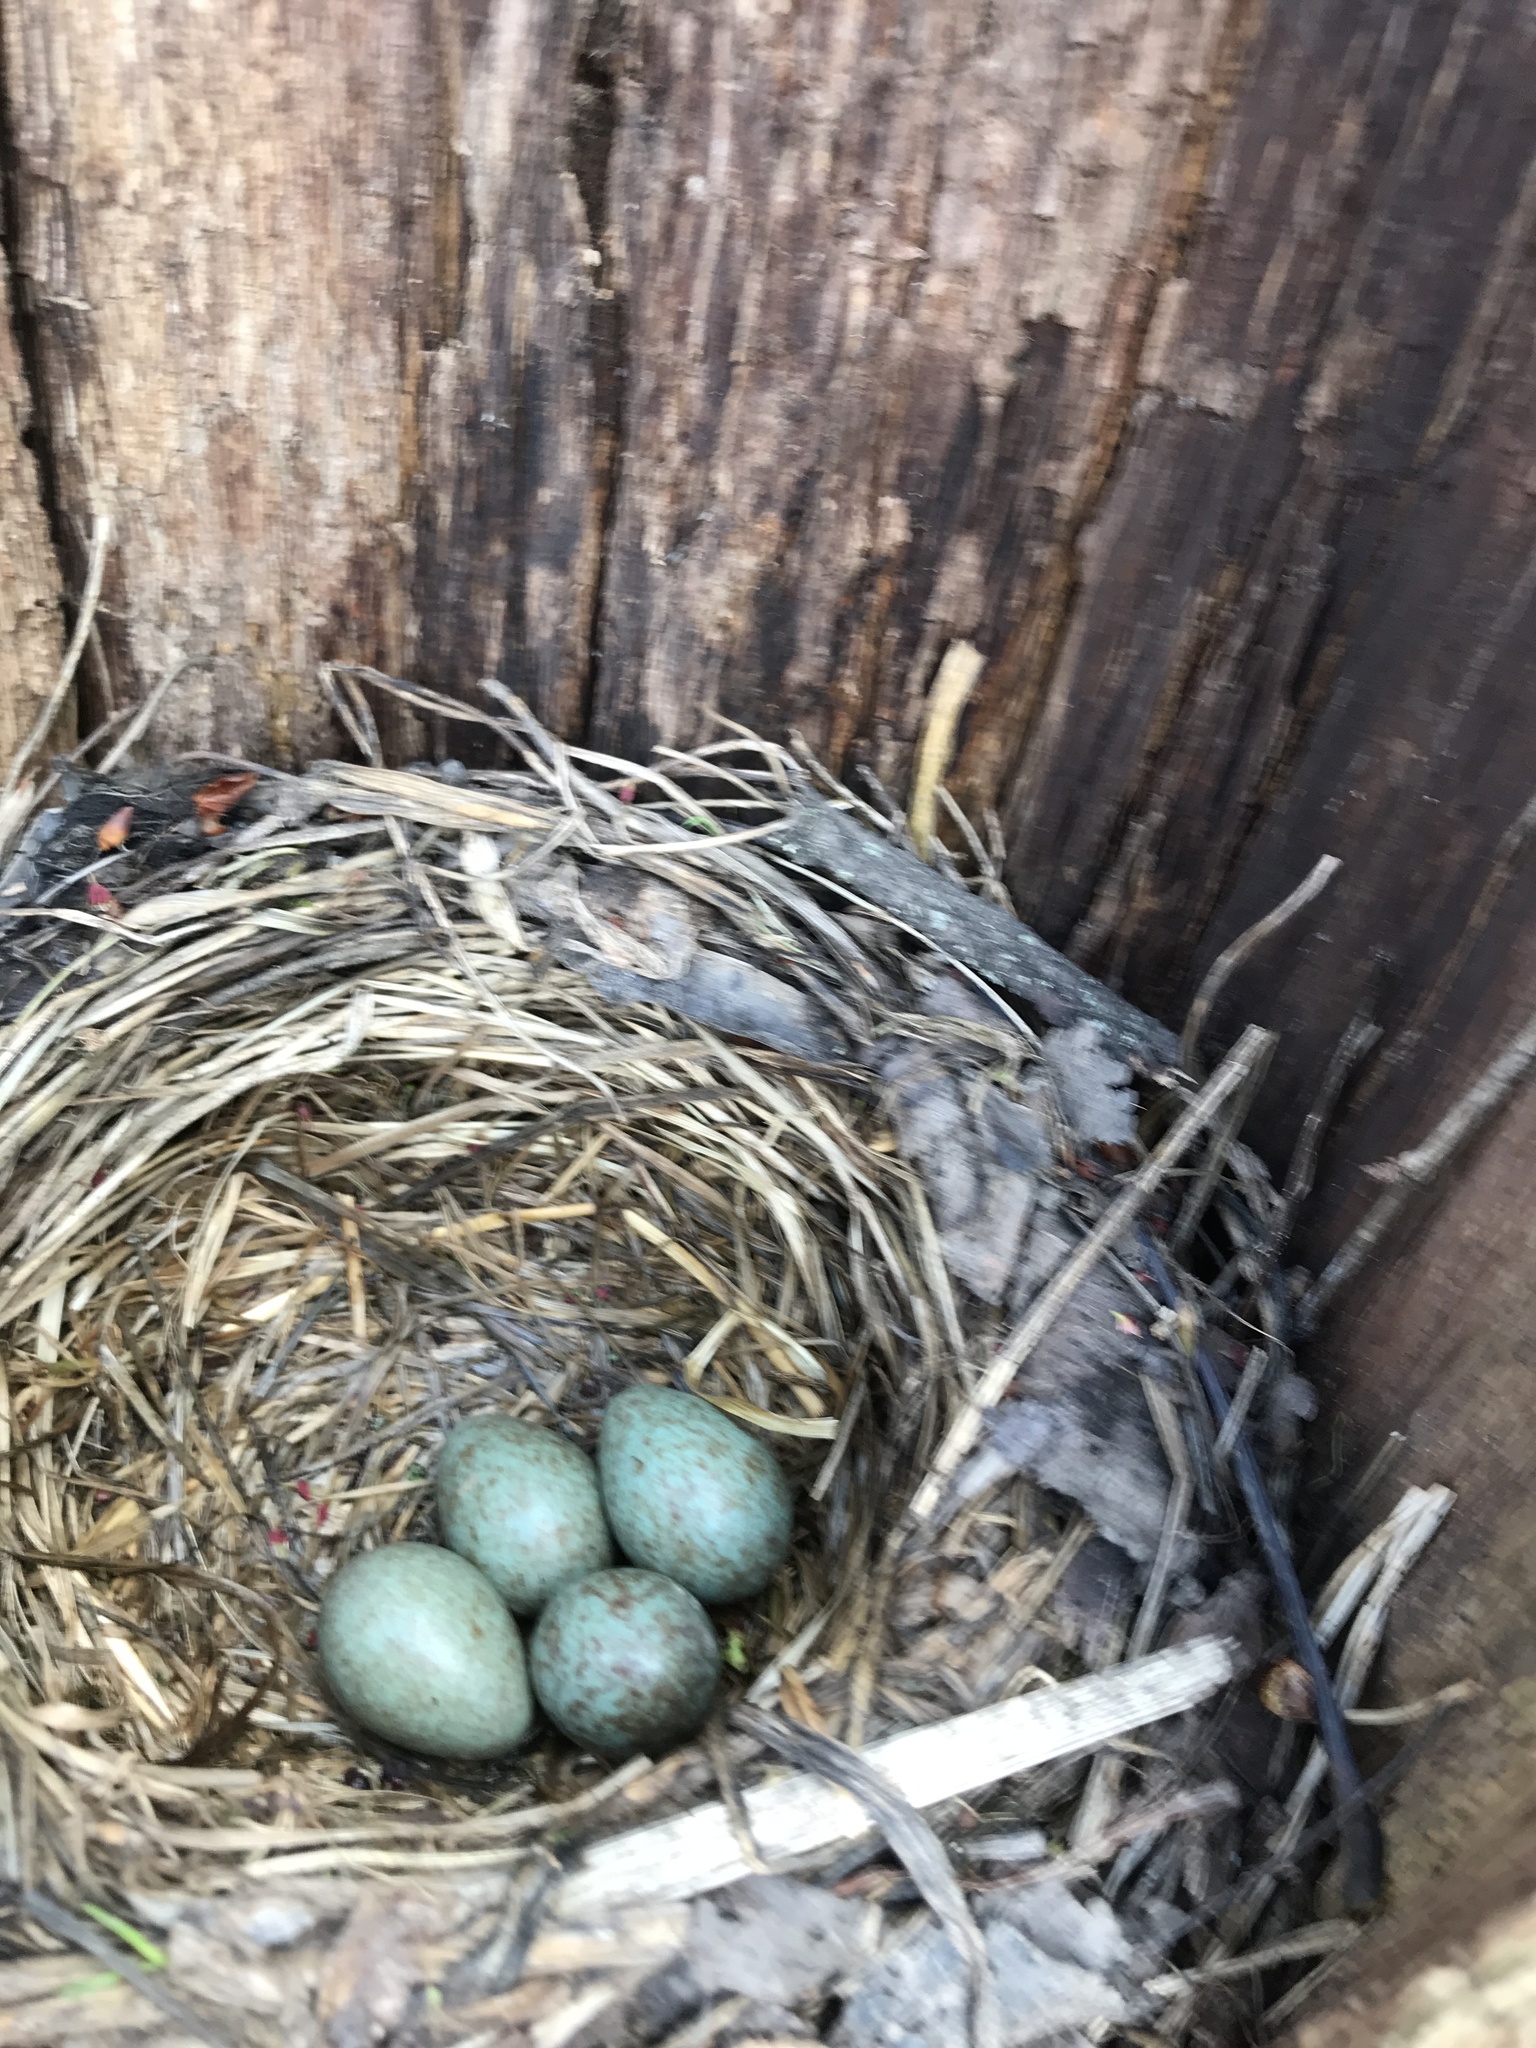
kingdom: Animalia
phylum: Chordata
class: Aves
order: Passeriformes
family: Turdidae
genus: Turdus
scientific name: Turdus pilaris
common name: Fieldfare
